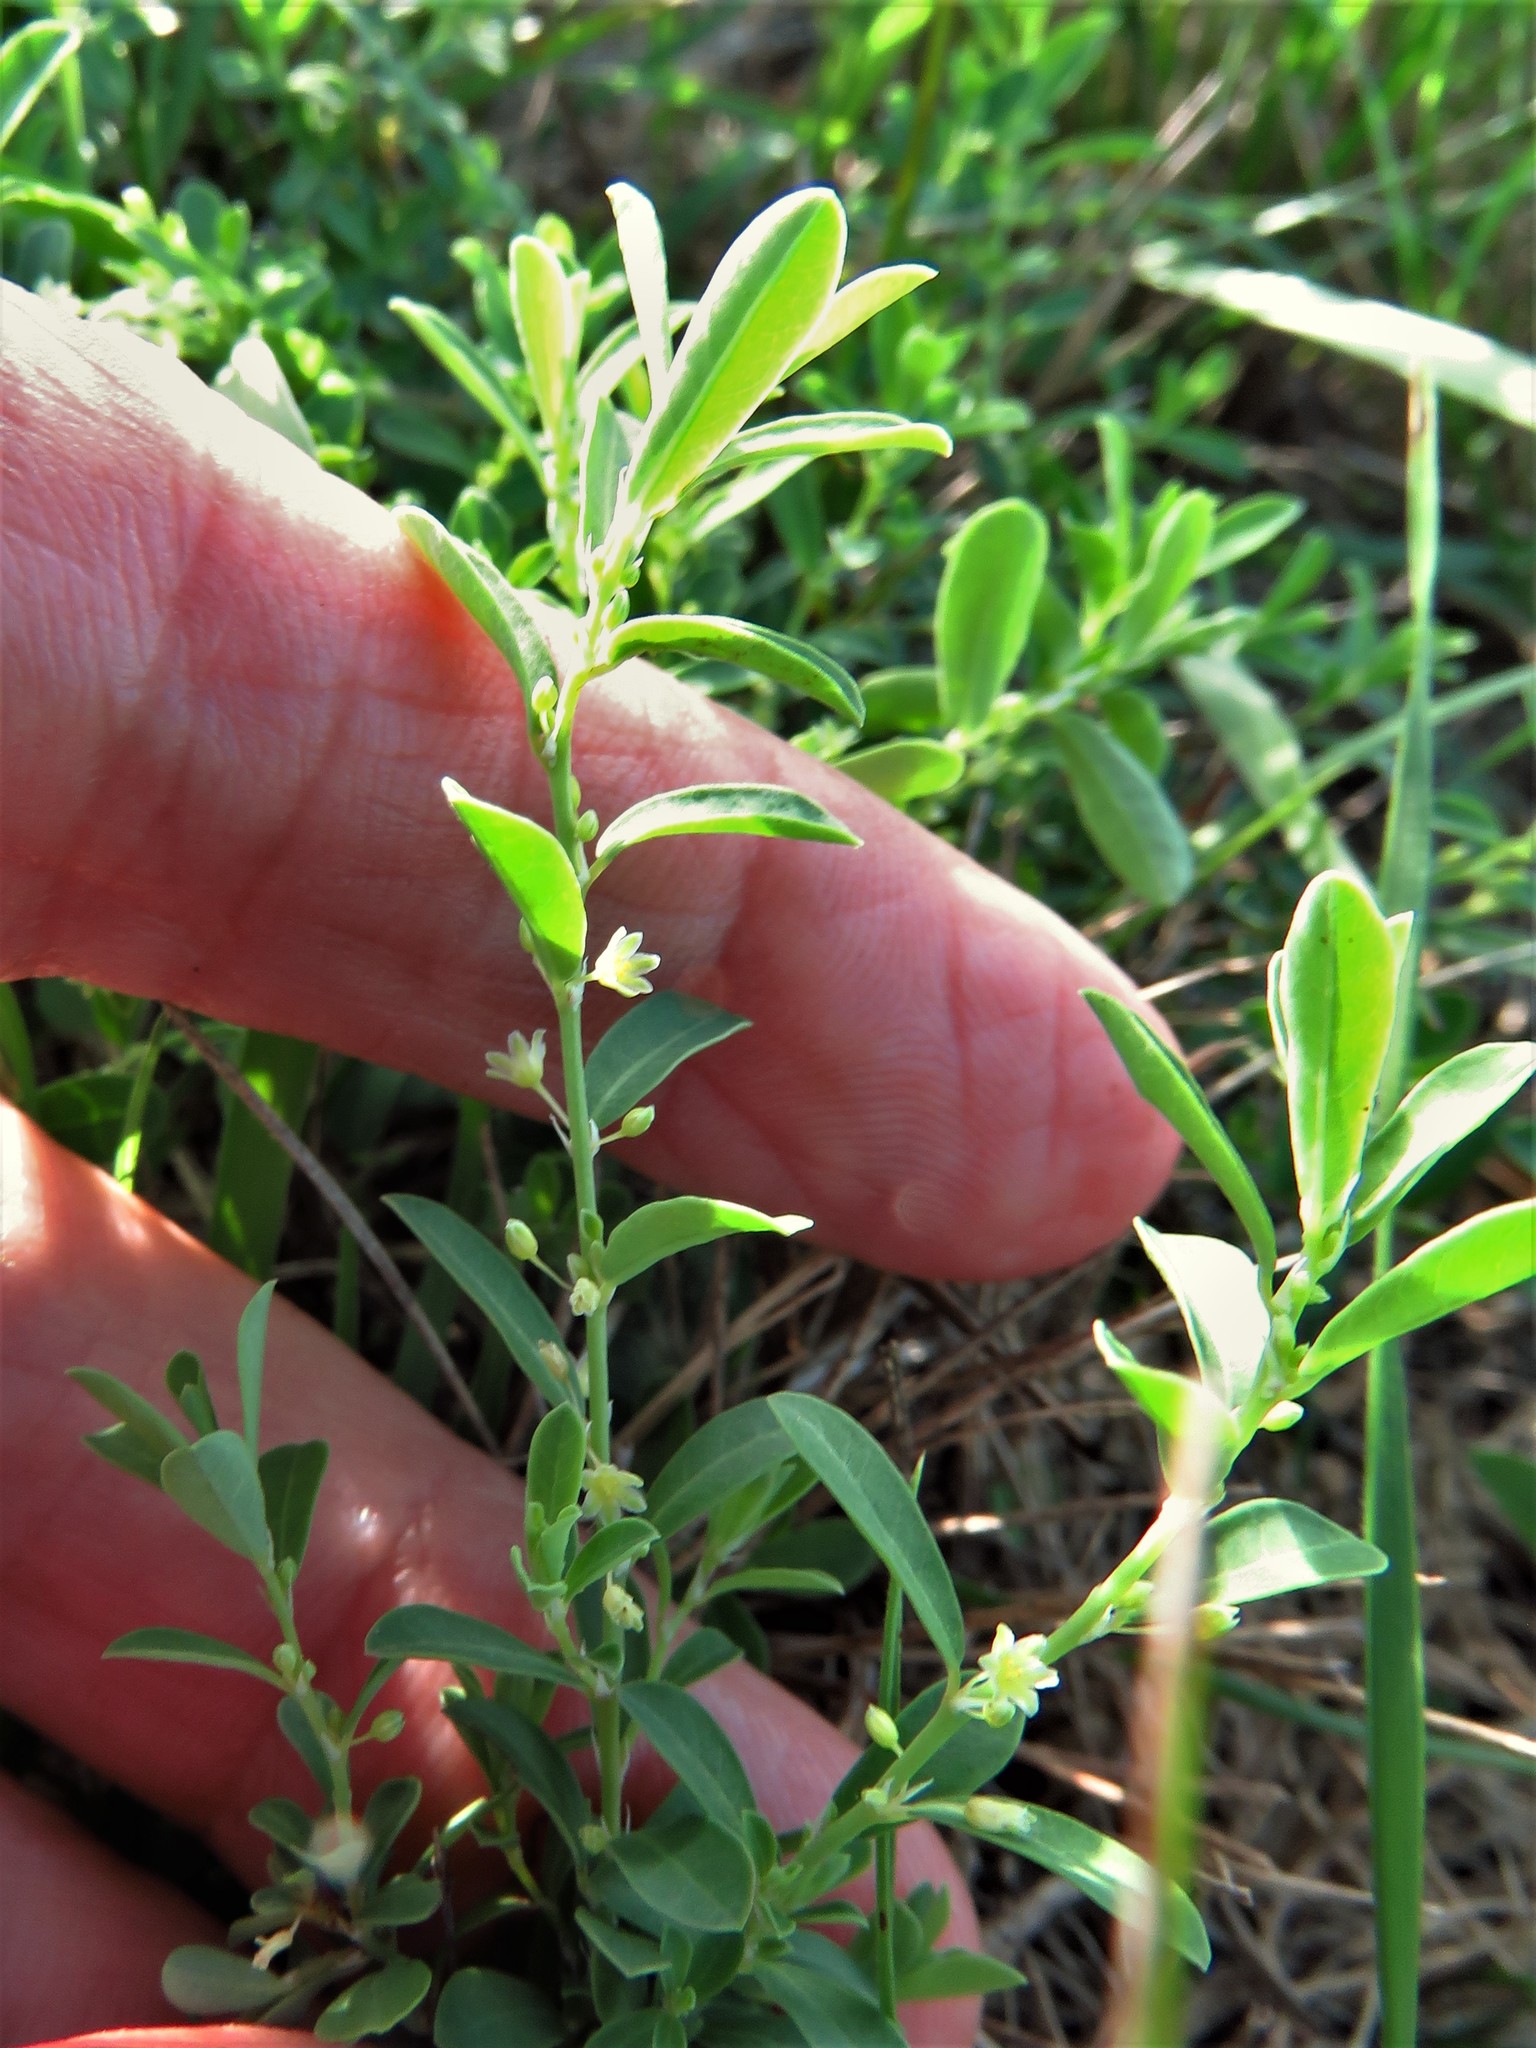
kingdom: Plantae
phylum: Tracheophyta
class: Magnoliopsida
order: Malpighiales
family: Phyllanthaceae
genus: Phyllanthus
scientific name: Phyllanthus polygonoides
